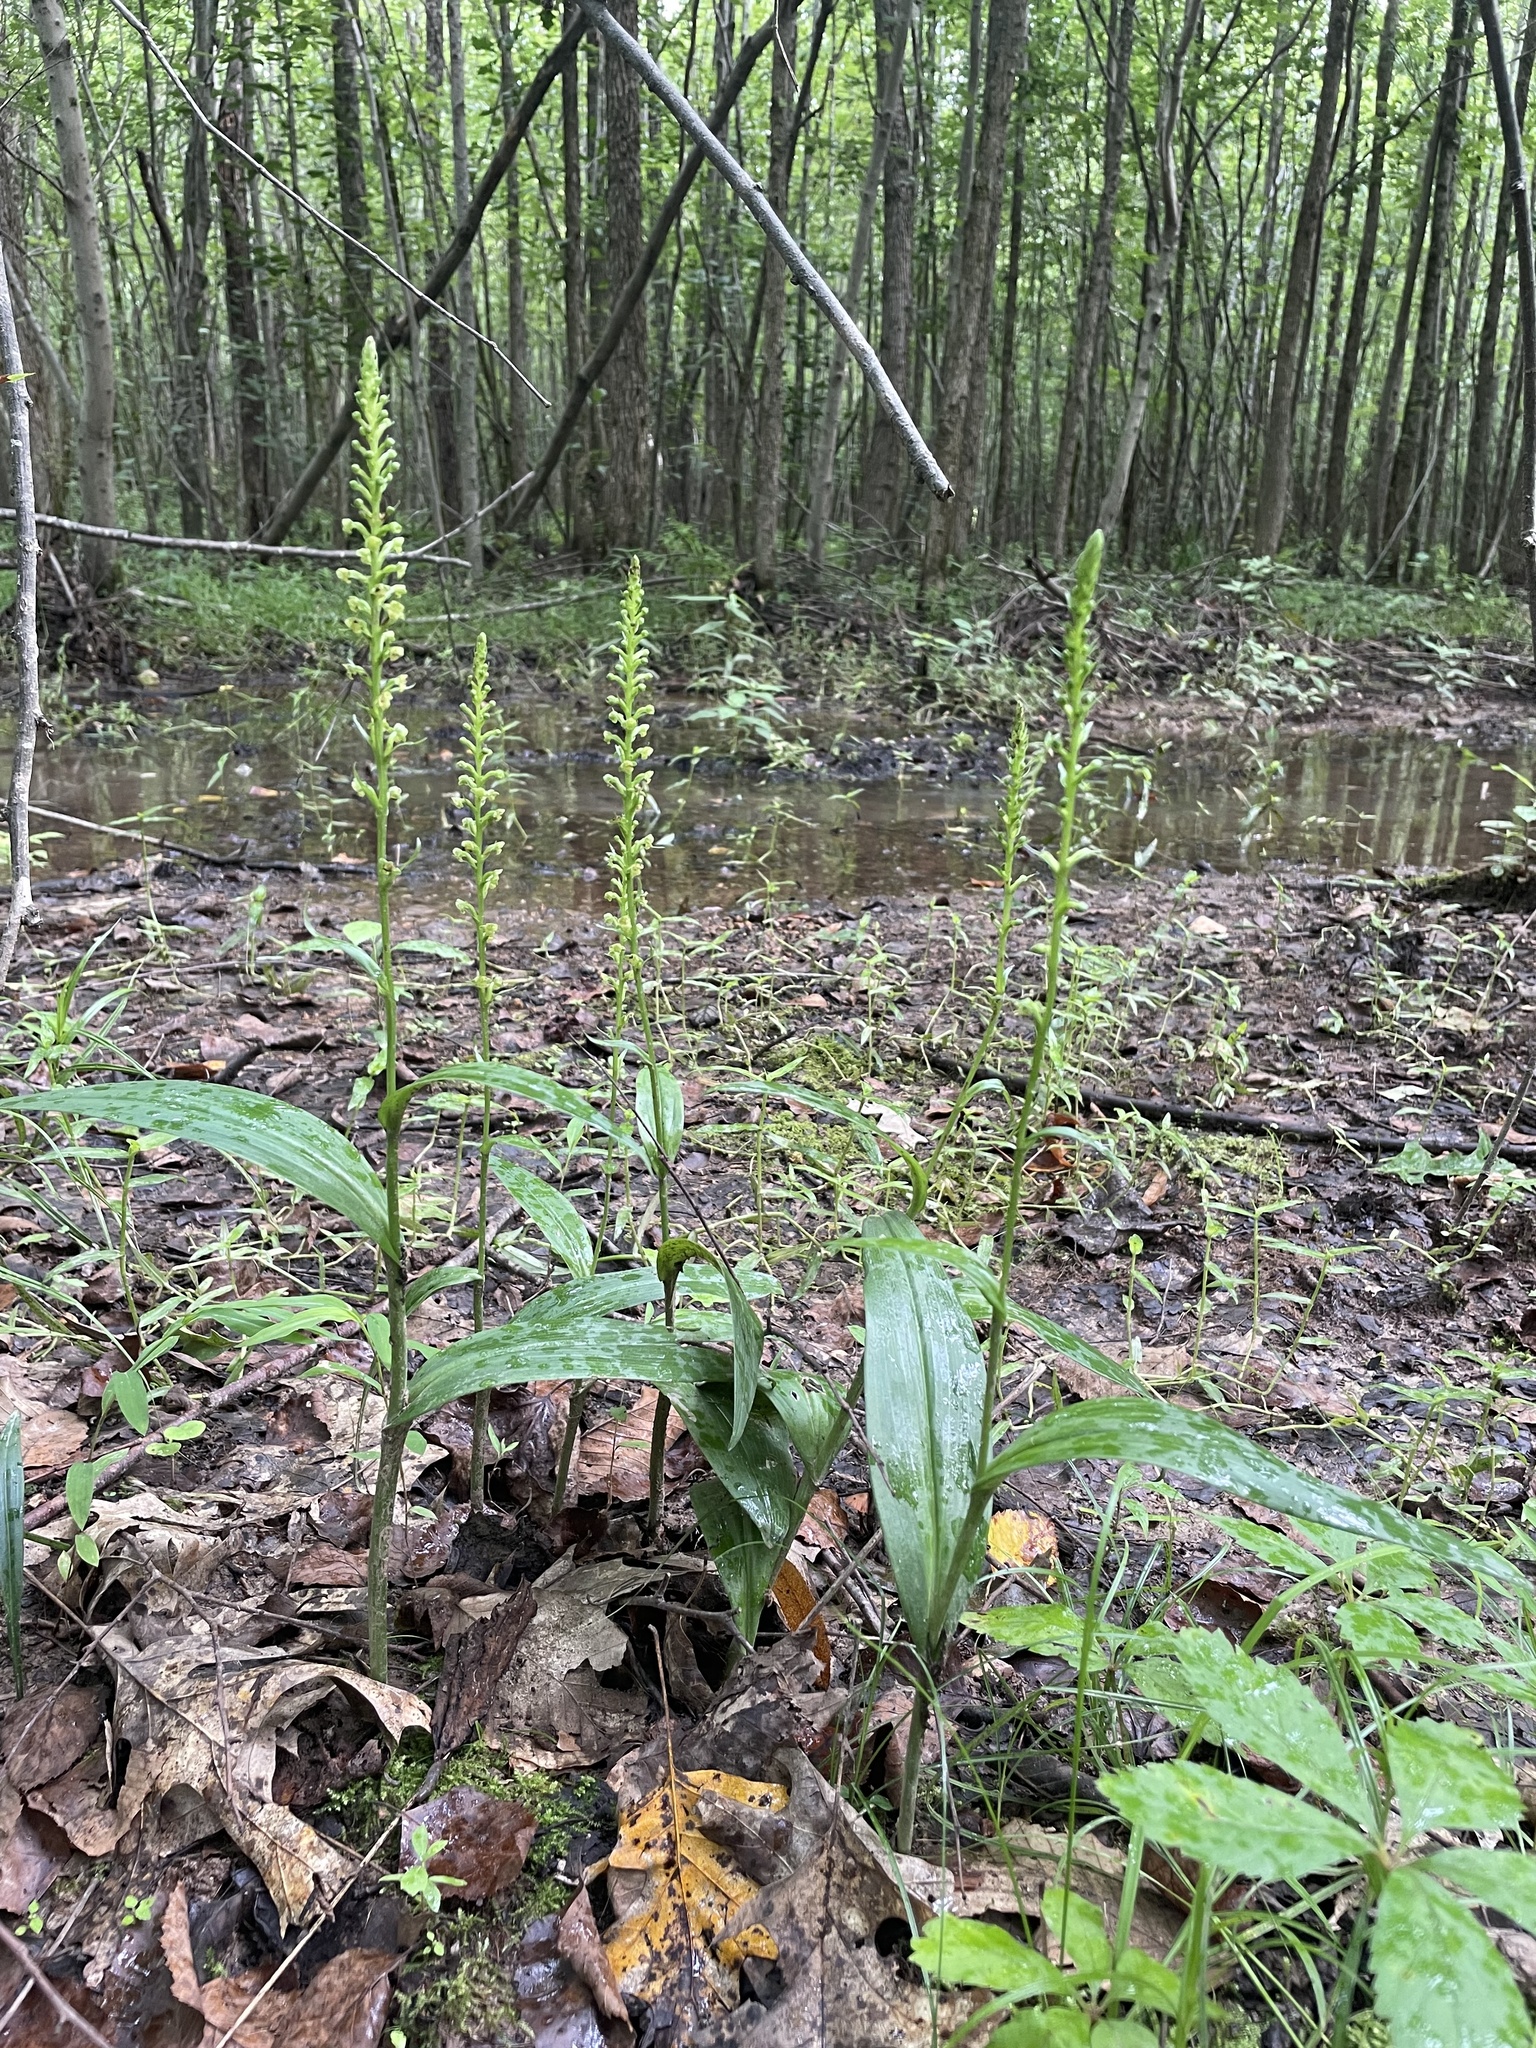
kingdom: Plantae
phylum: Tracheophyta
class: Liliopsida
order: Asparagales
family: Orchidaceae
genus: Platanthera
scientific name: Platanthera flava
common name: Gypsy-spikes
